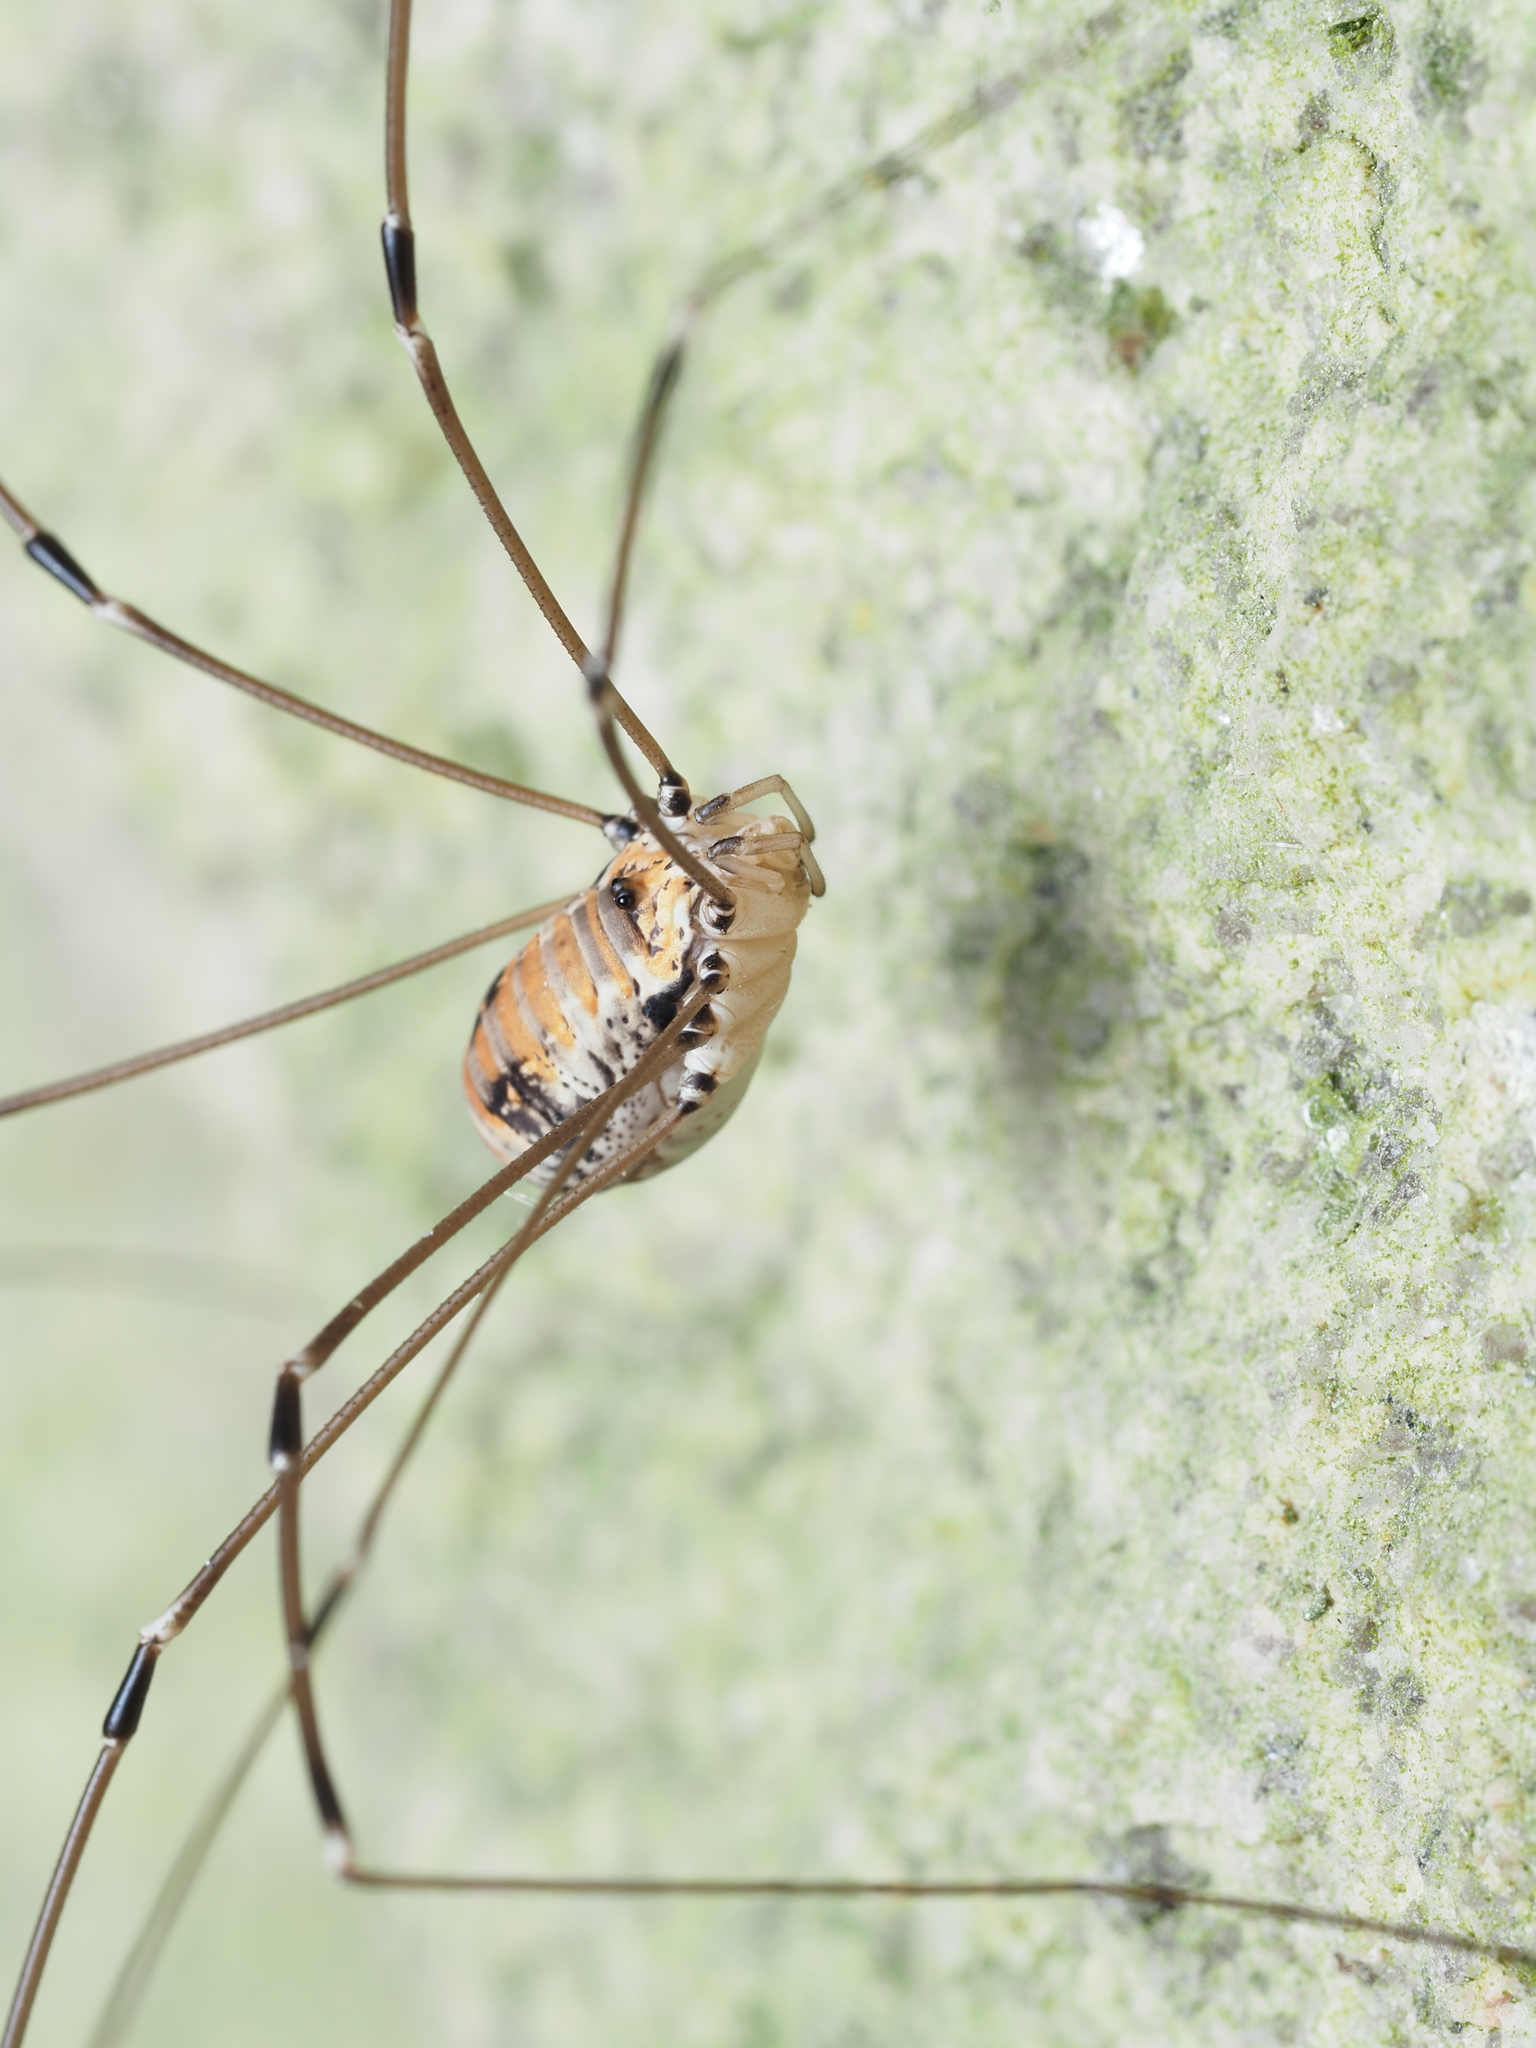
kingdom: Animalia
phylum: Arthropoda
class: Arachnida
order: Opiliones
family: Sclerosomatidae
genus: Leiobunum
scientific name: Leiobunum limbatum
